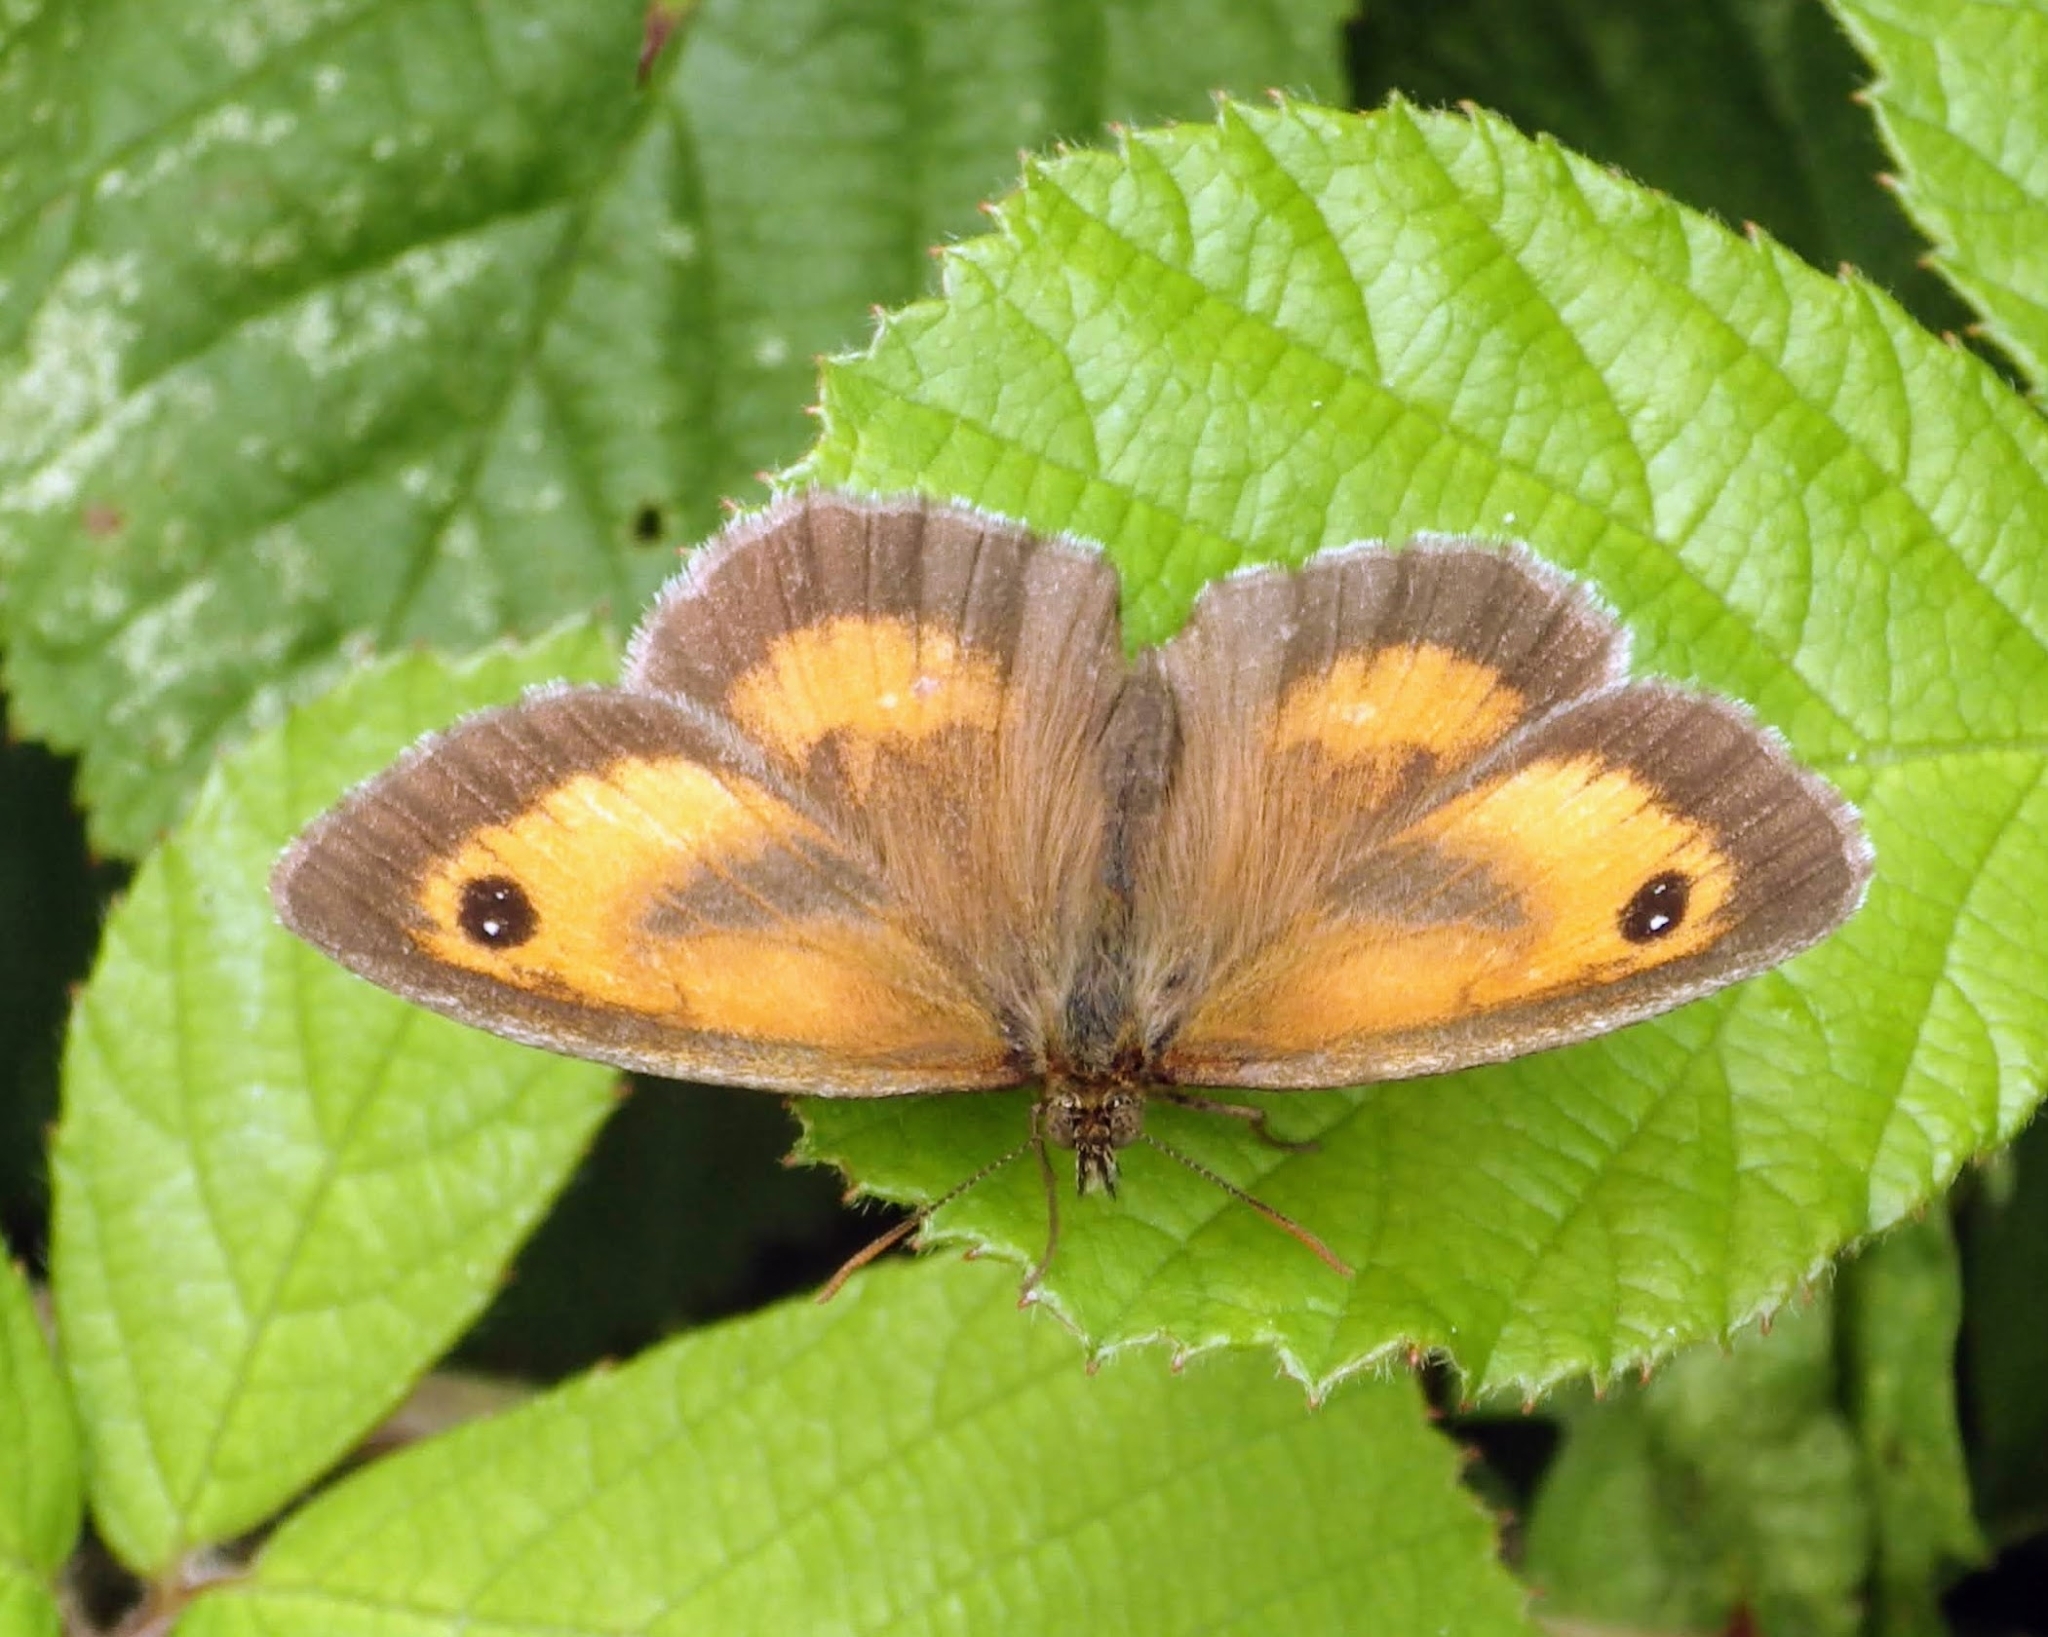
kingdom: Animalia
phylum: Arthropoda
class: Insecta
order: Lepidoptera
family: Nymphalidae
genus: Pyronia
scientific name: Pyronia tithonus
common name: Gatekeeper
